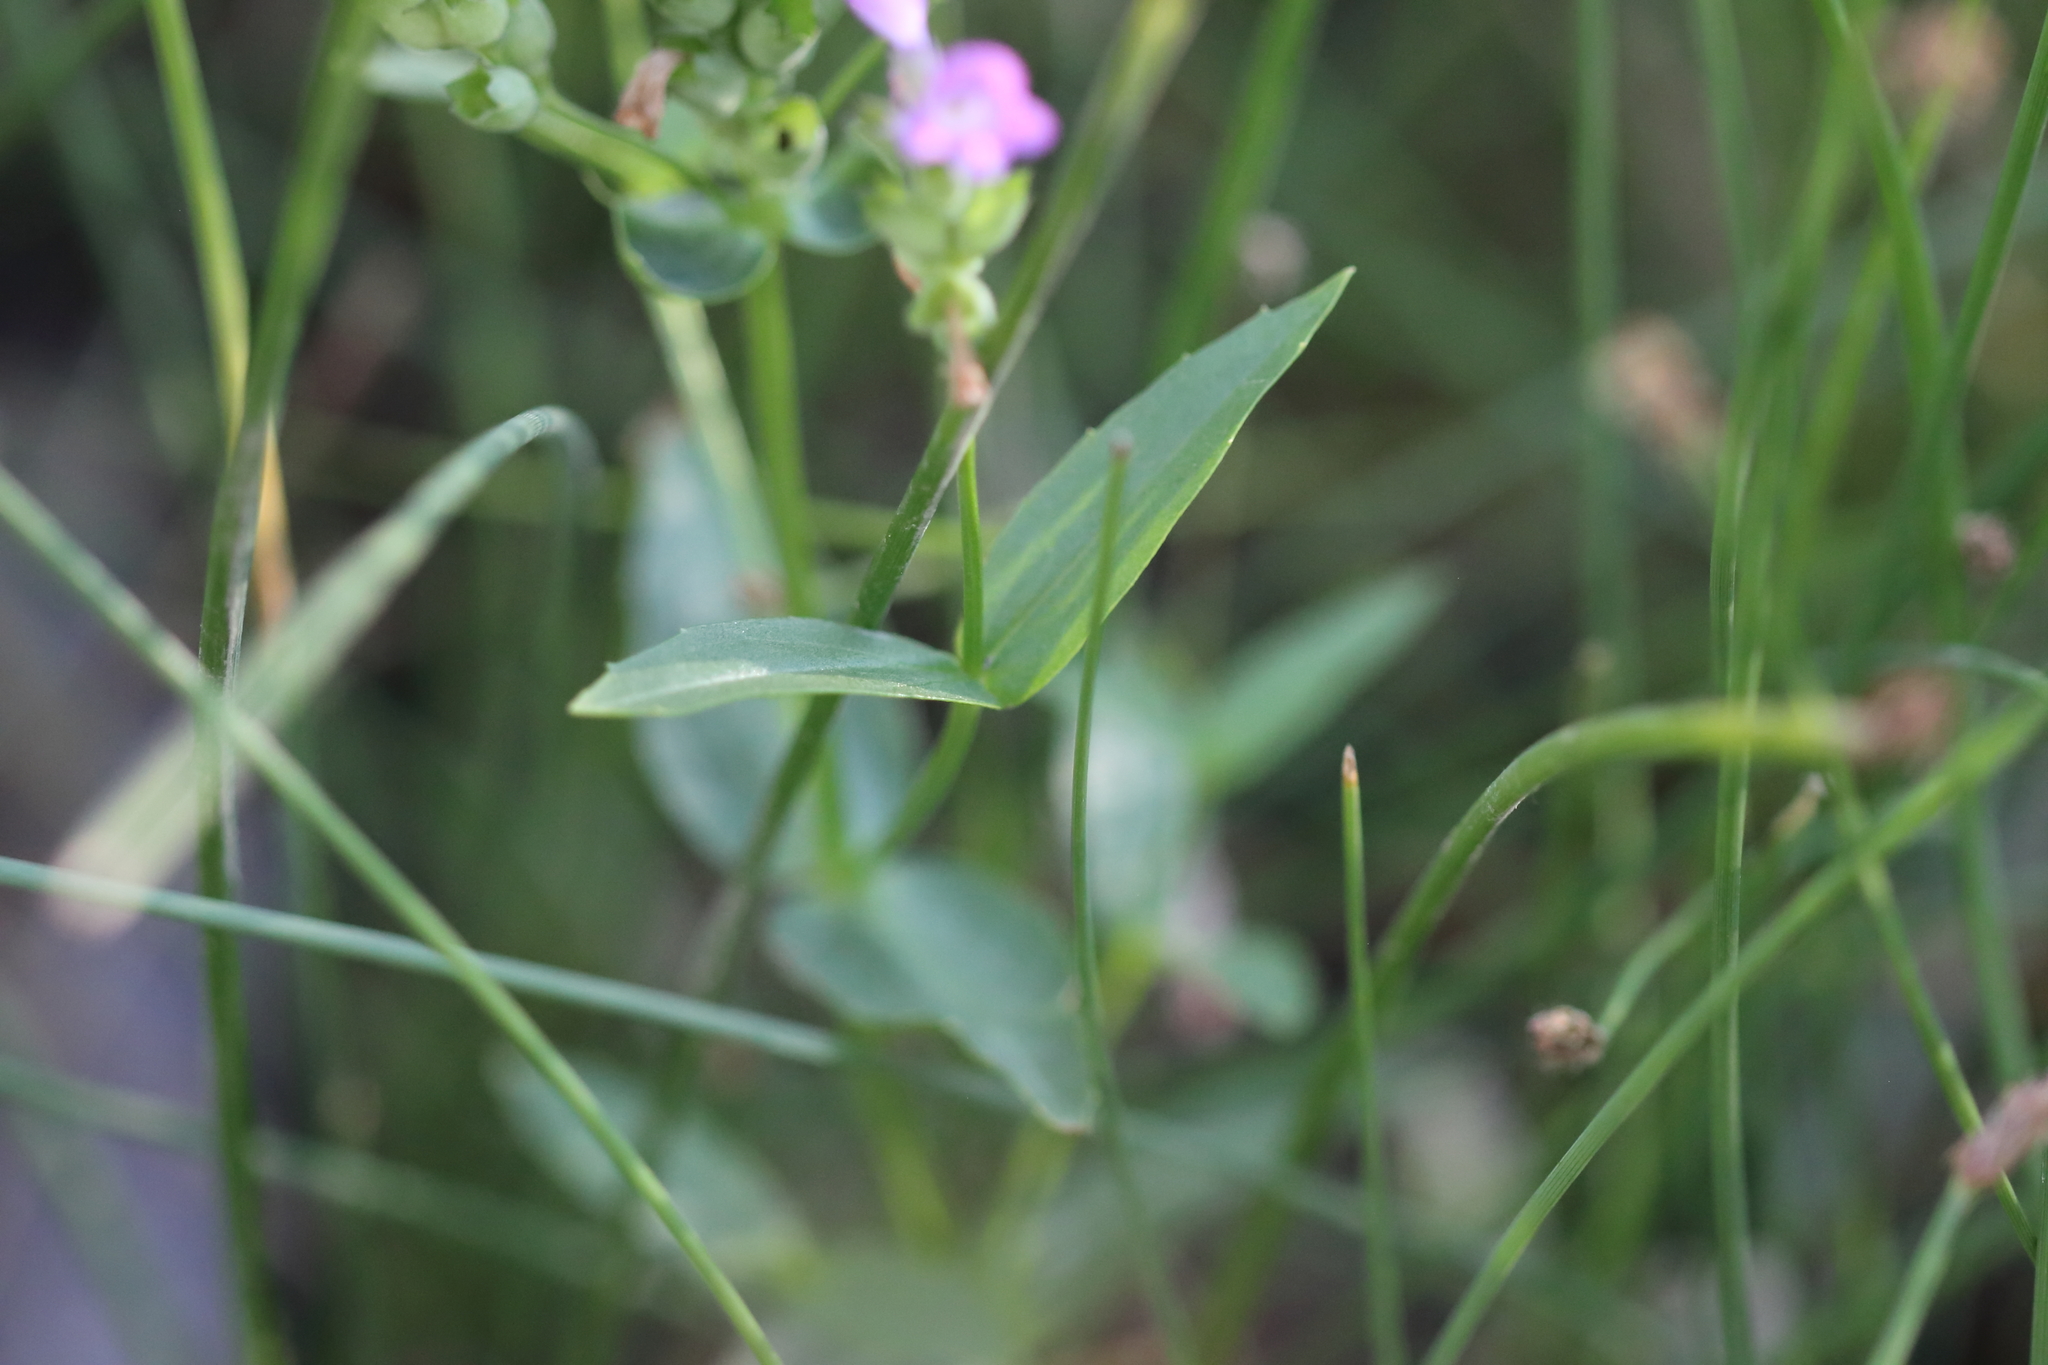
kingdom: Plantae
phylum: Tracheophyta
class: Magnoliopsida
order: Lamiales
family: Lamiaceae
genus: Physostegia
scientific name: Physostegia parviflora
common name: American dragonhead
